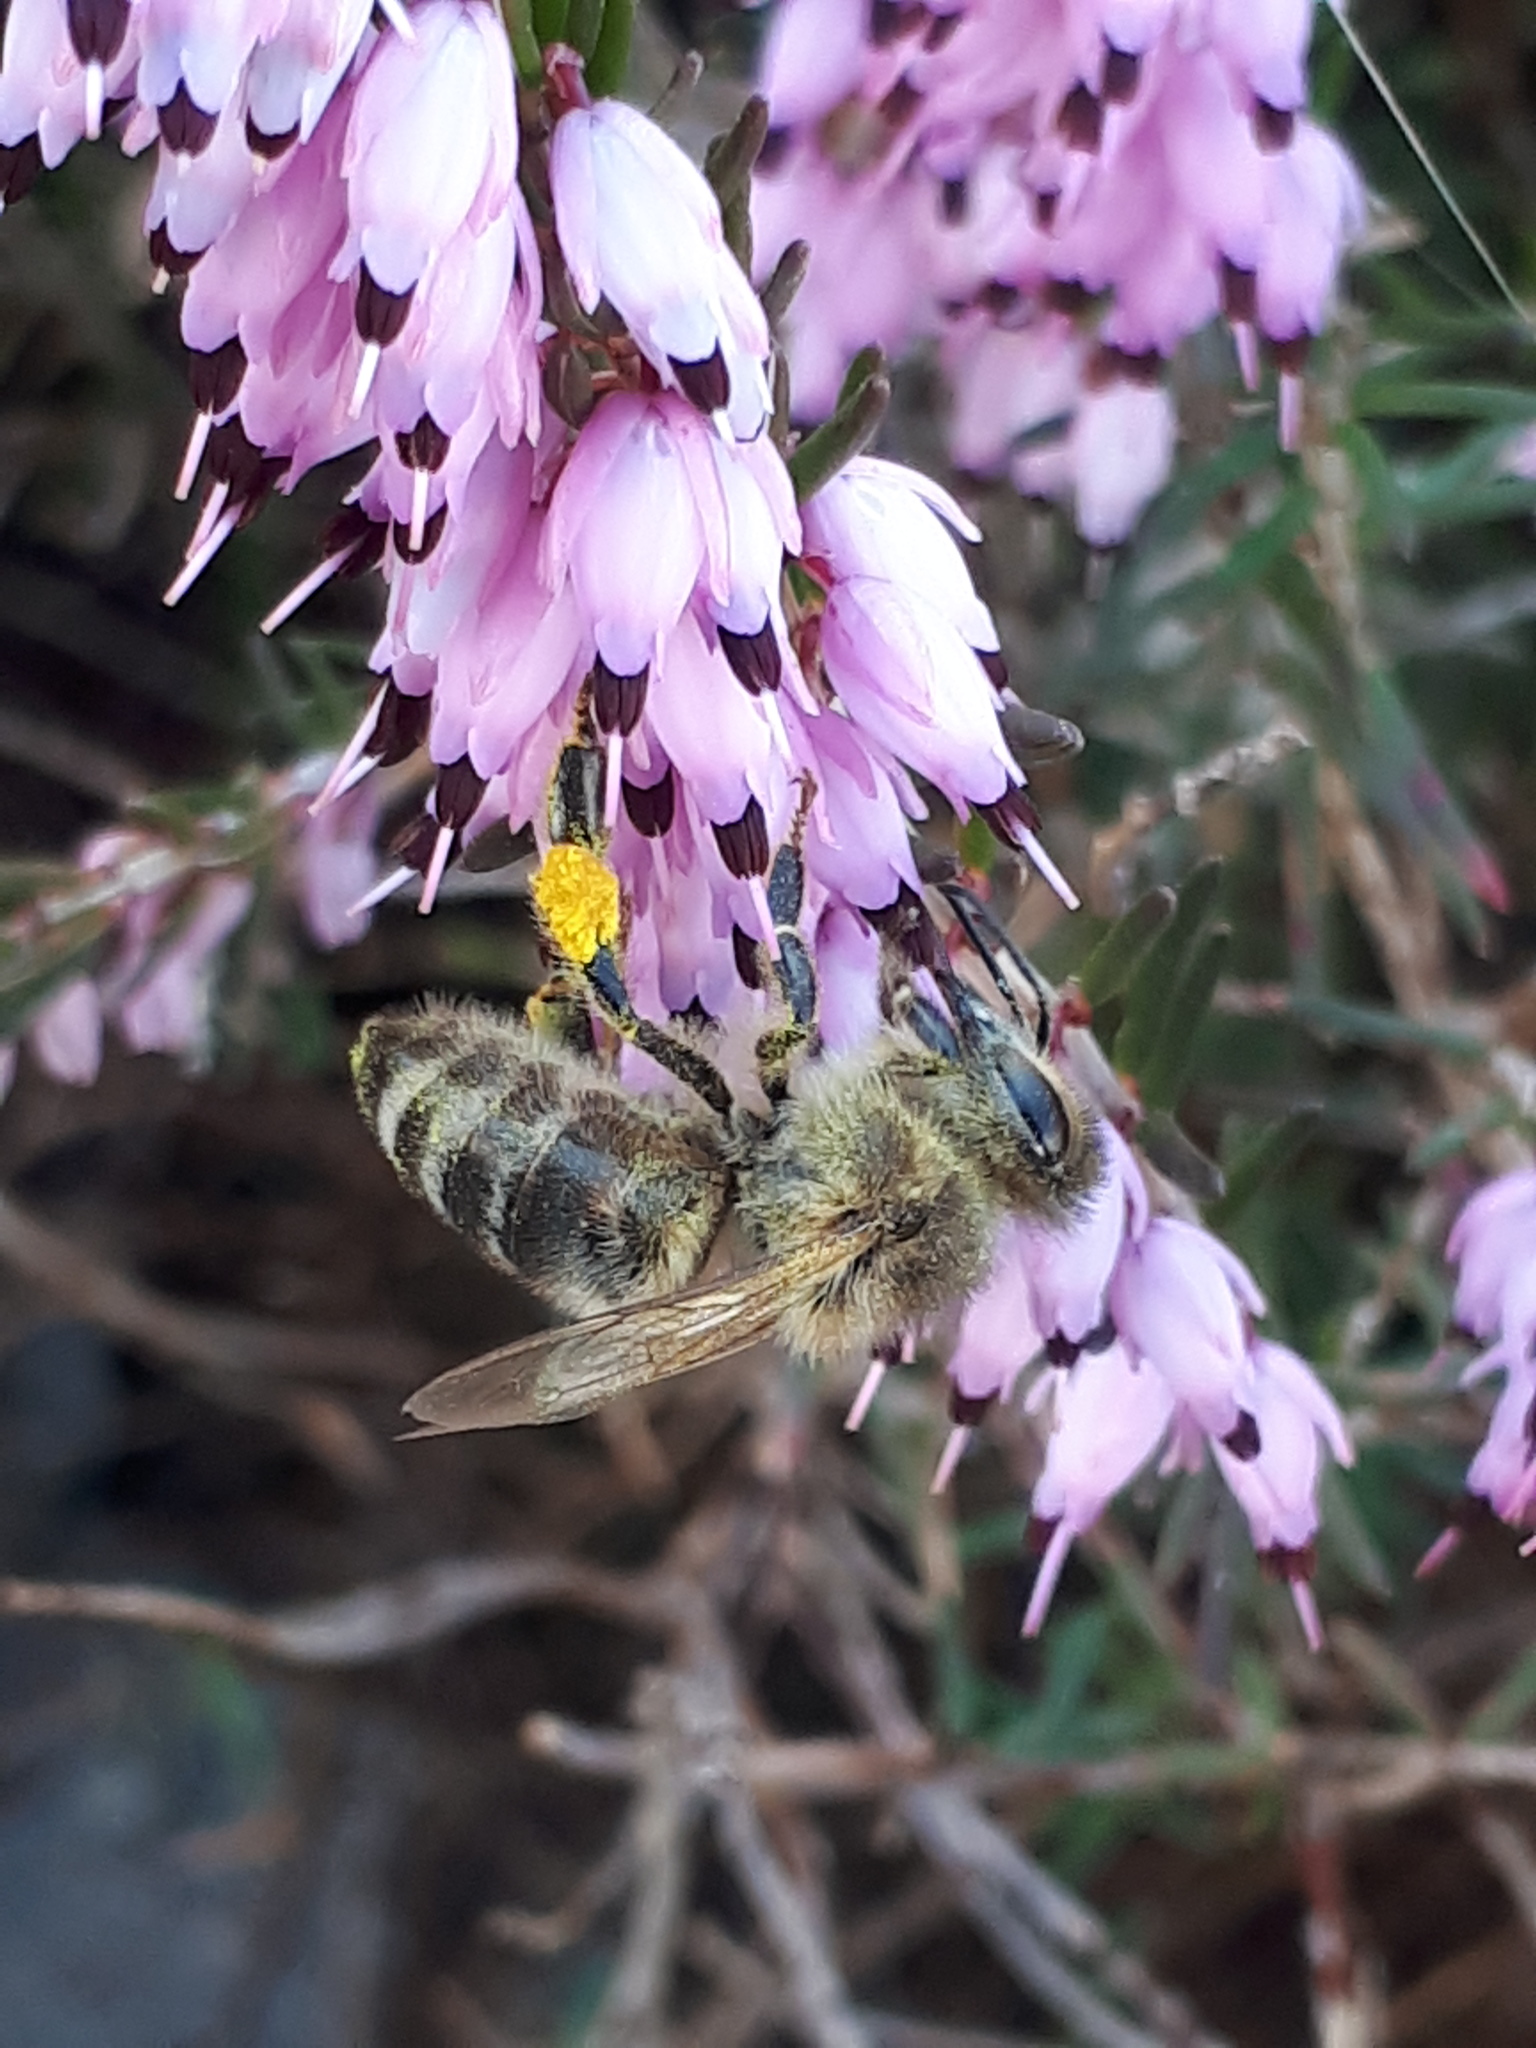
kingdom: Animalia
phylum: Arthropoda
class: Insecta
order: Hymenoptera
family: Apidae
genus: Apis
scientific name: Apis mellifera
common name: Honey bee
